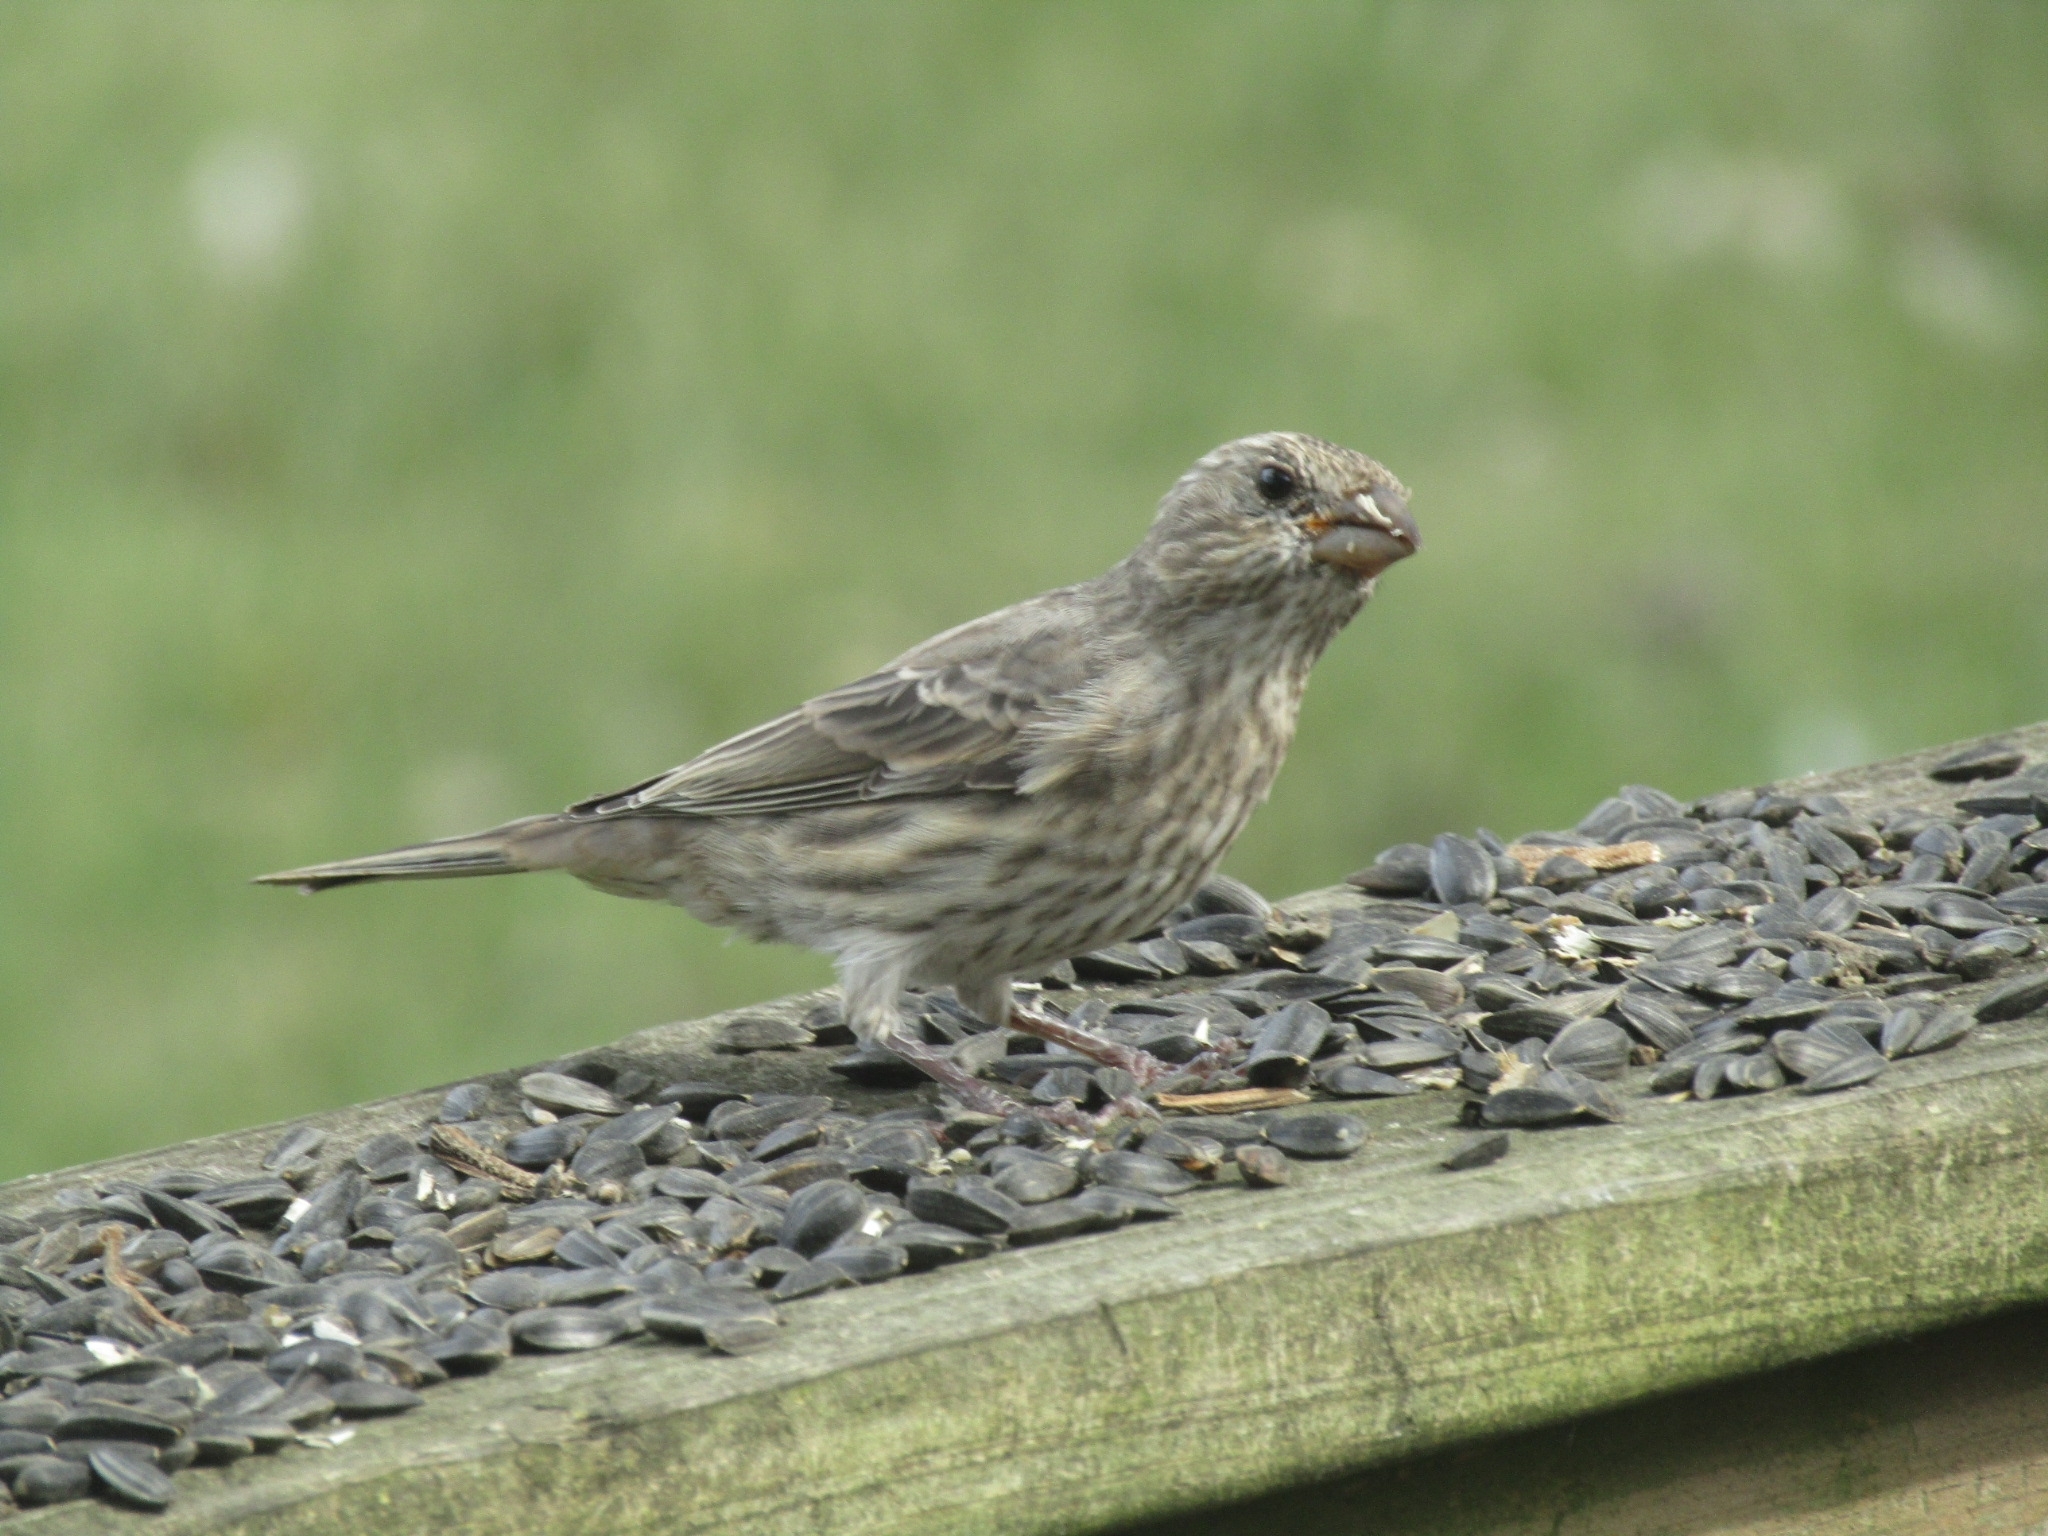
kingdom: Animalia
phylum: Chordata
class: Aves
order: Passeriformes
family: Fringillidae
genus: Haemorhous
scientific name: Haemorhous mexicanus
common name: House finch
